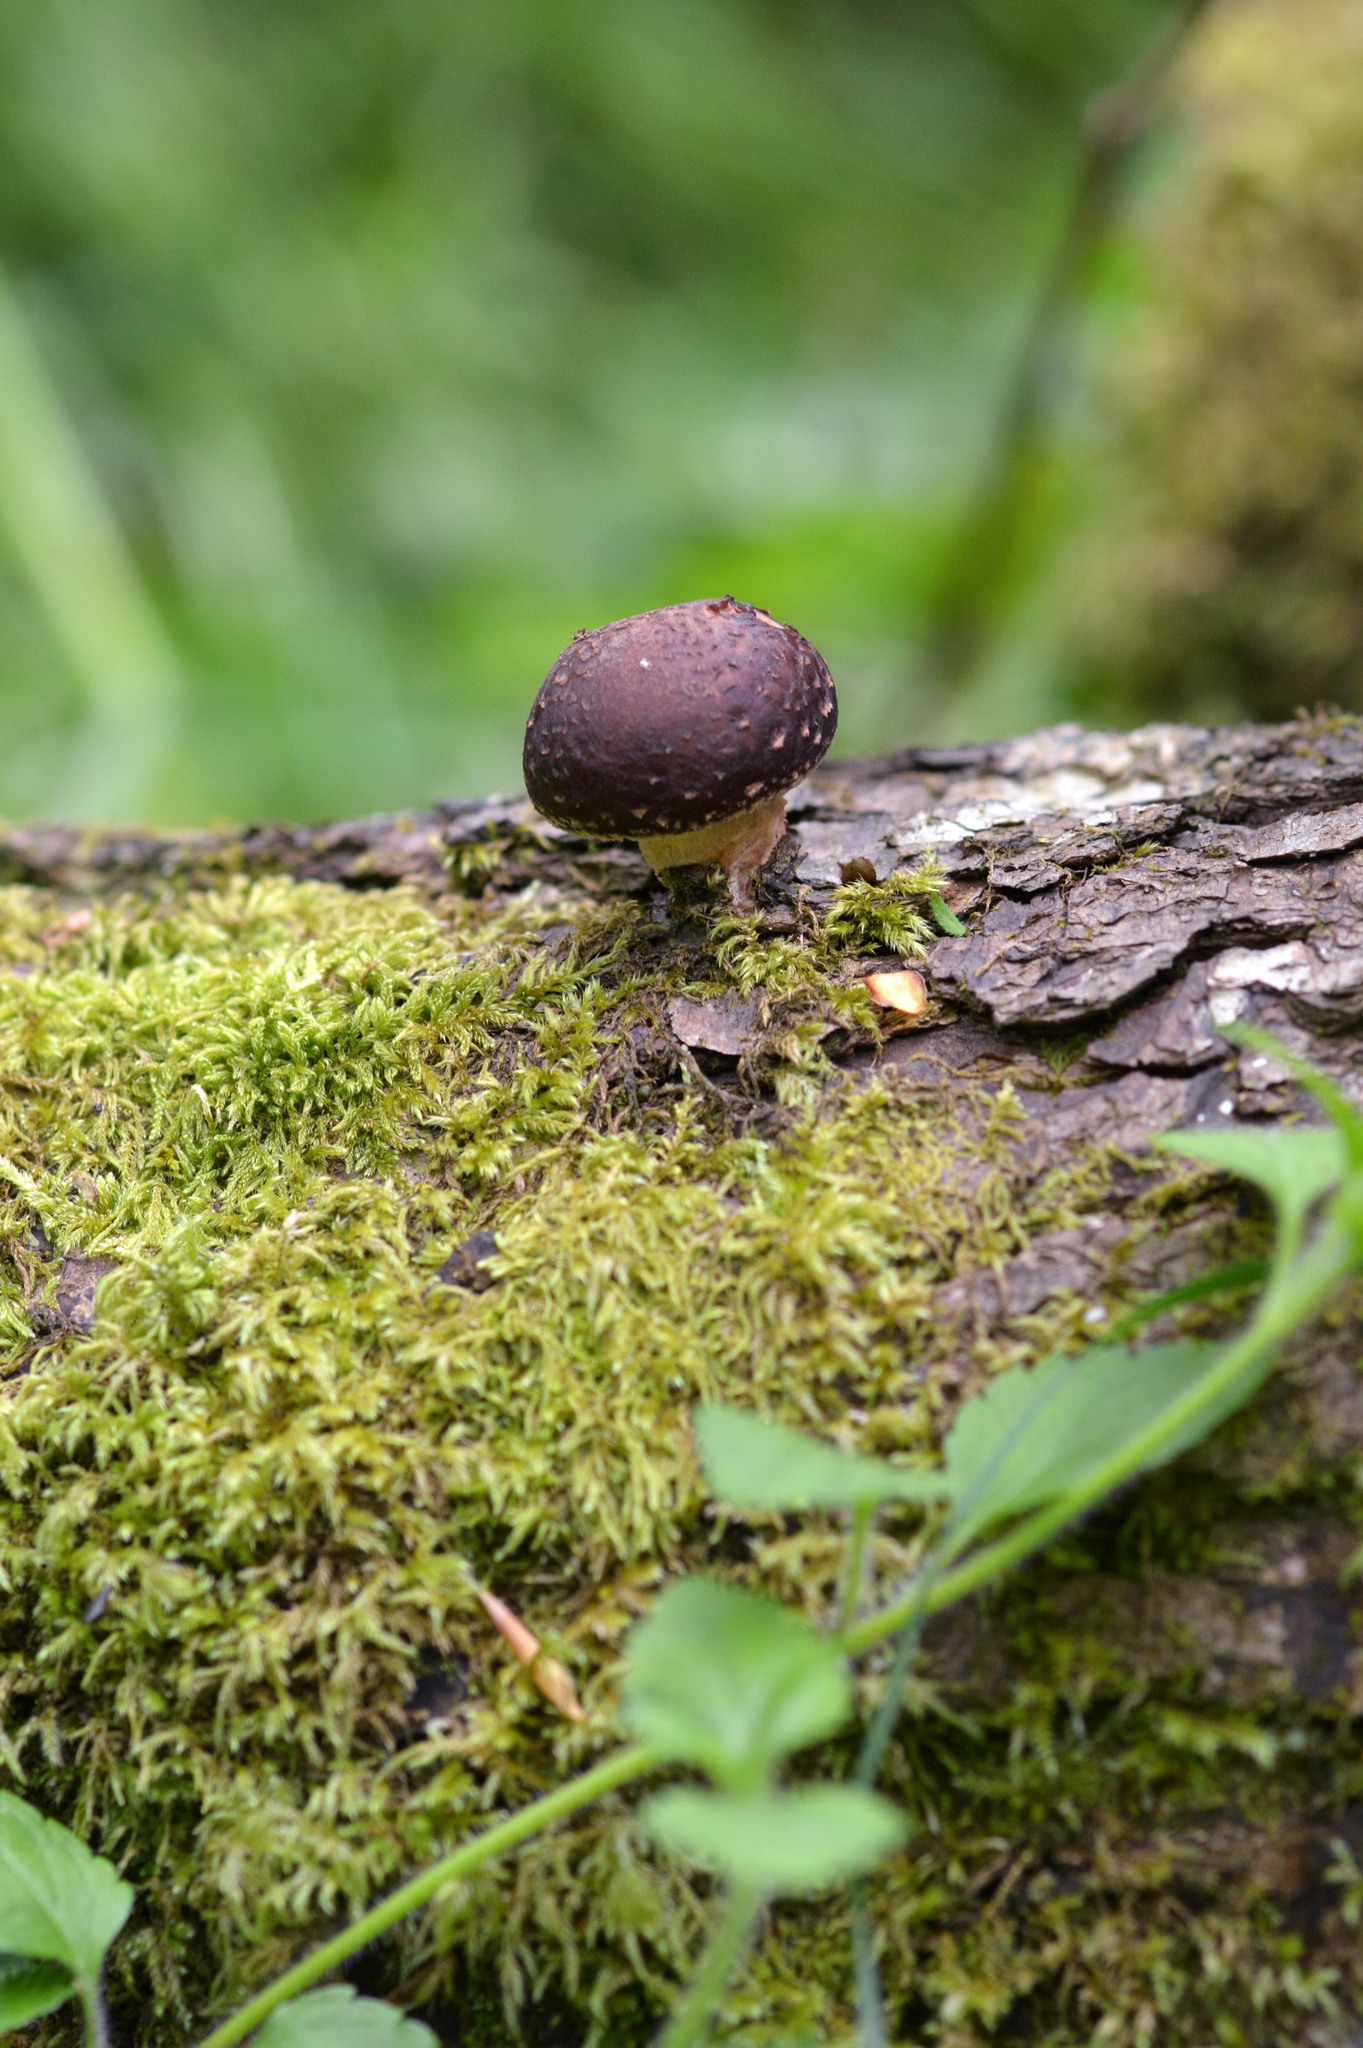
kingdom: Fungi
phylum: Basidiomycota
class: Agaricomycetes
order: Agaricales
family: Omphalotaceae
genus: Lentinula
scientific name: Lentinula edodes
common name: Shiitake
